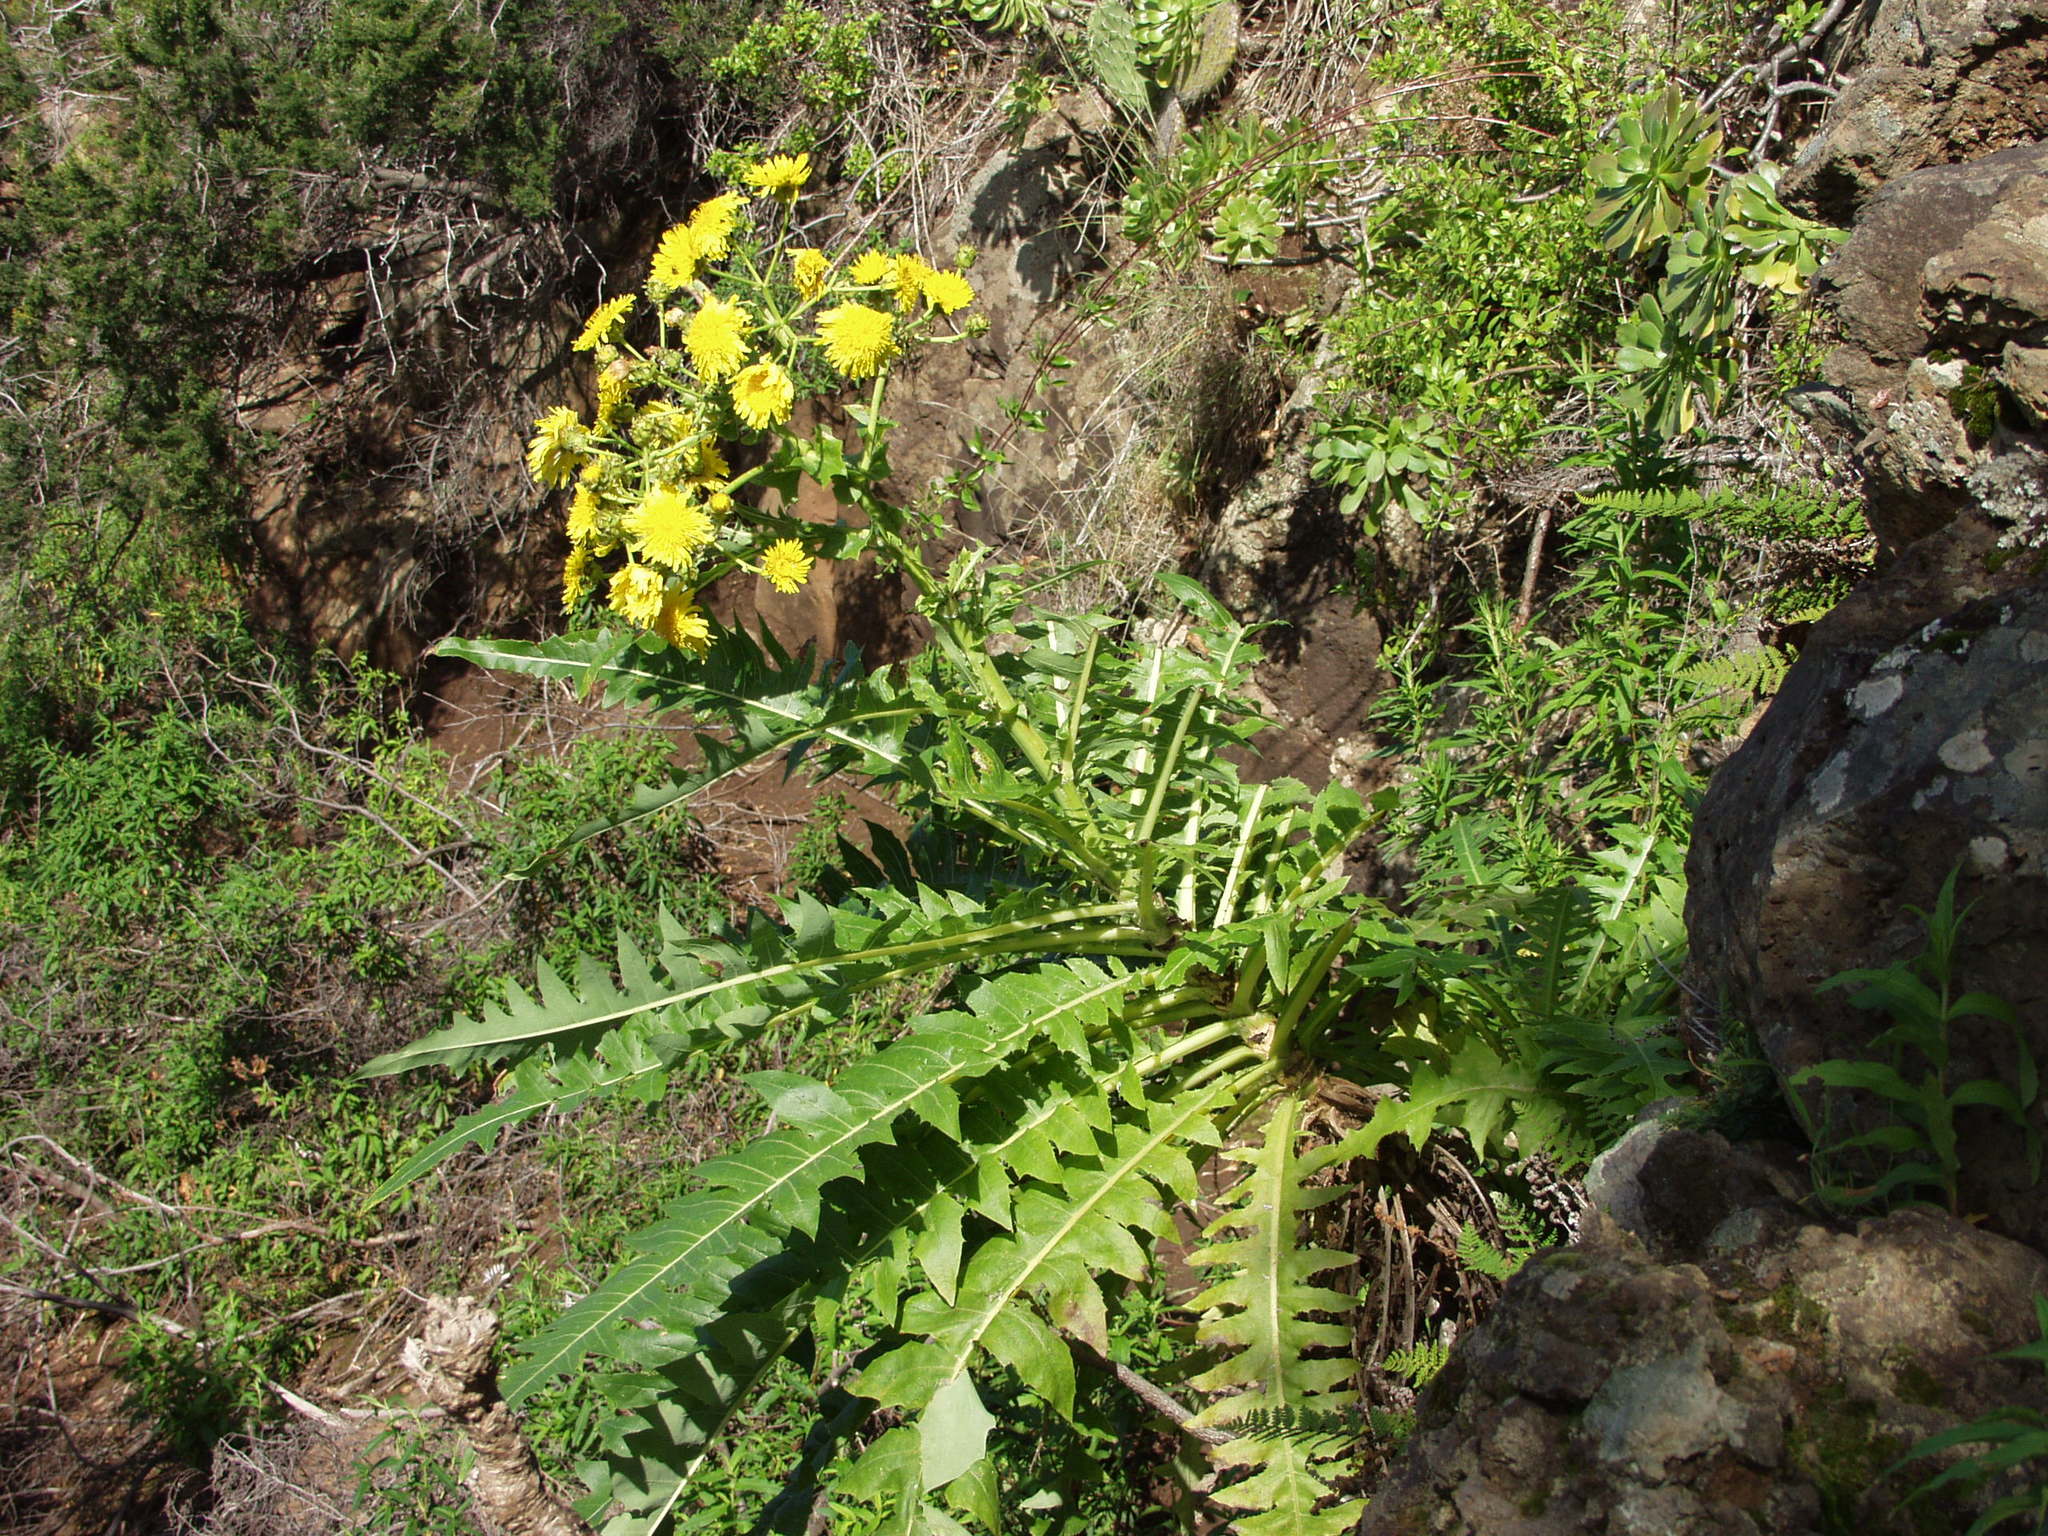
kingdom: Plantae
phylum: Tracheophyta
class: Magnoliopsida
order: Asterales
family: Asteraceae
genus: Sonchus
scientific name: Sonchus hierrensis
